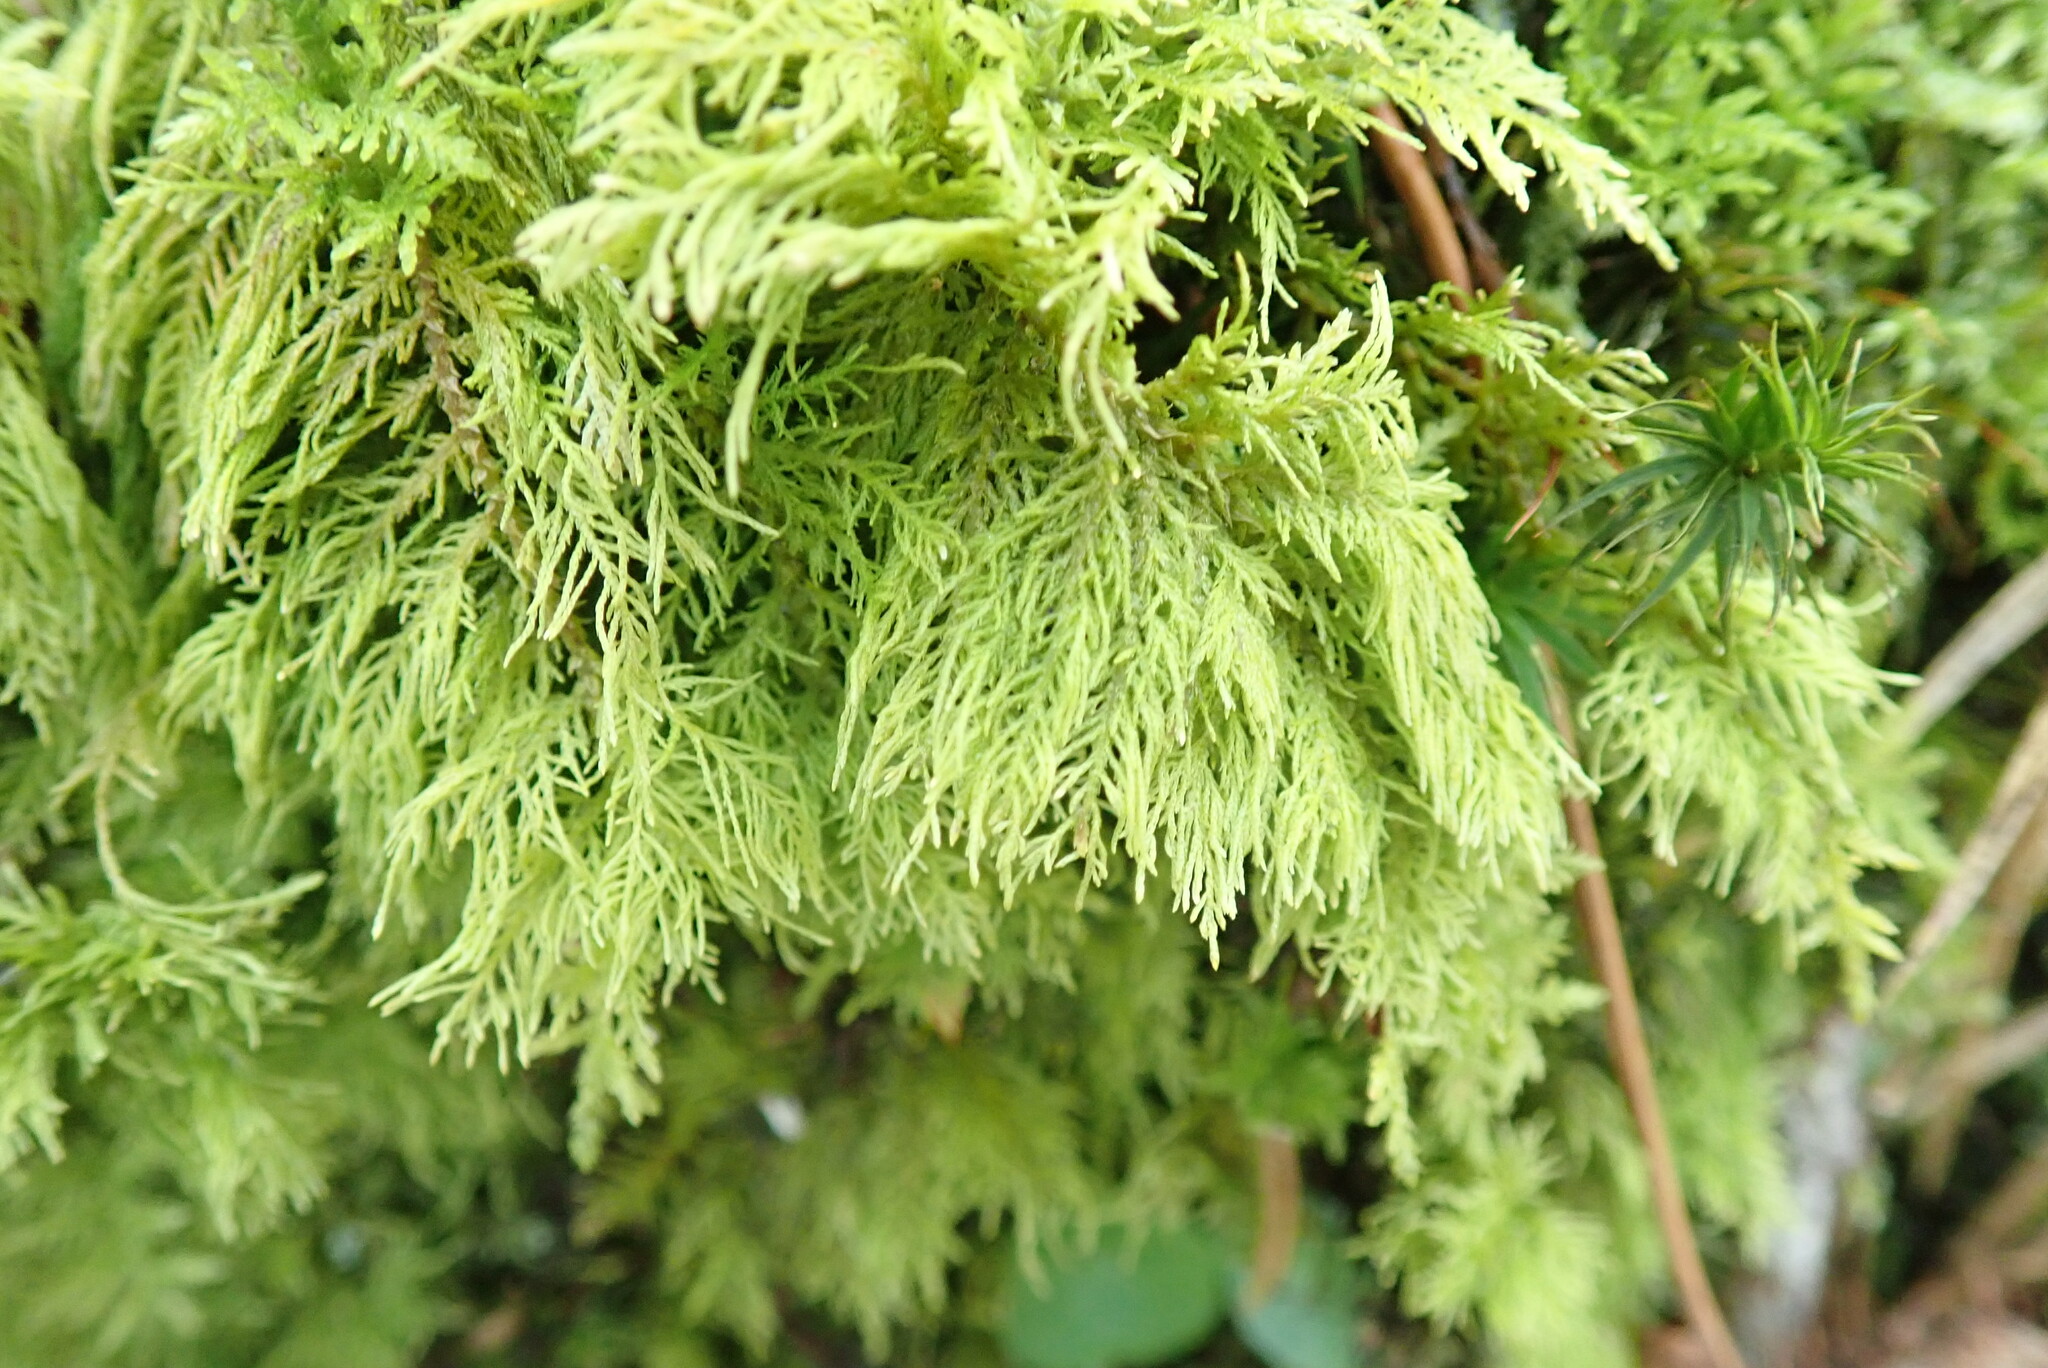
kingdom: Plantae
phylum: Bryophyta
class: Bryopsida
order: Hypnales
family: Thuidiaceae
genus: Thuidium
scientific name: Thuidium tamariscinum
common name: Common tamarisk-moss
